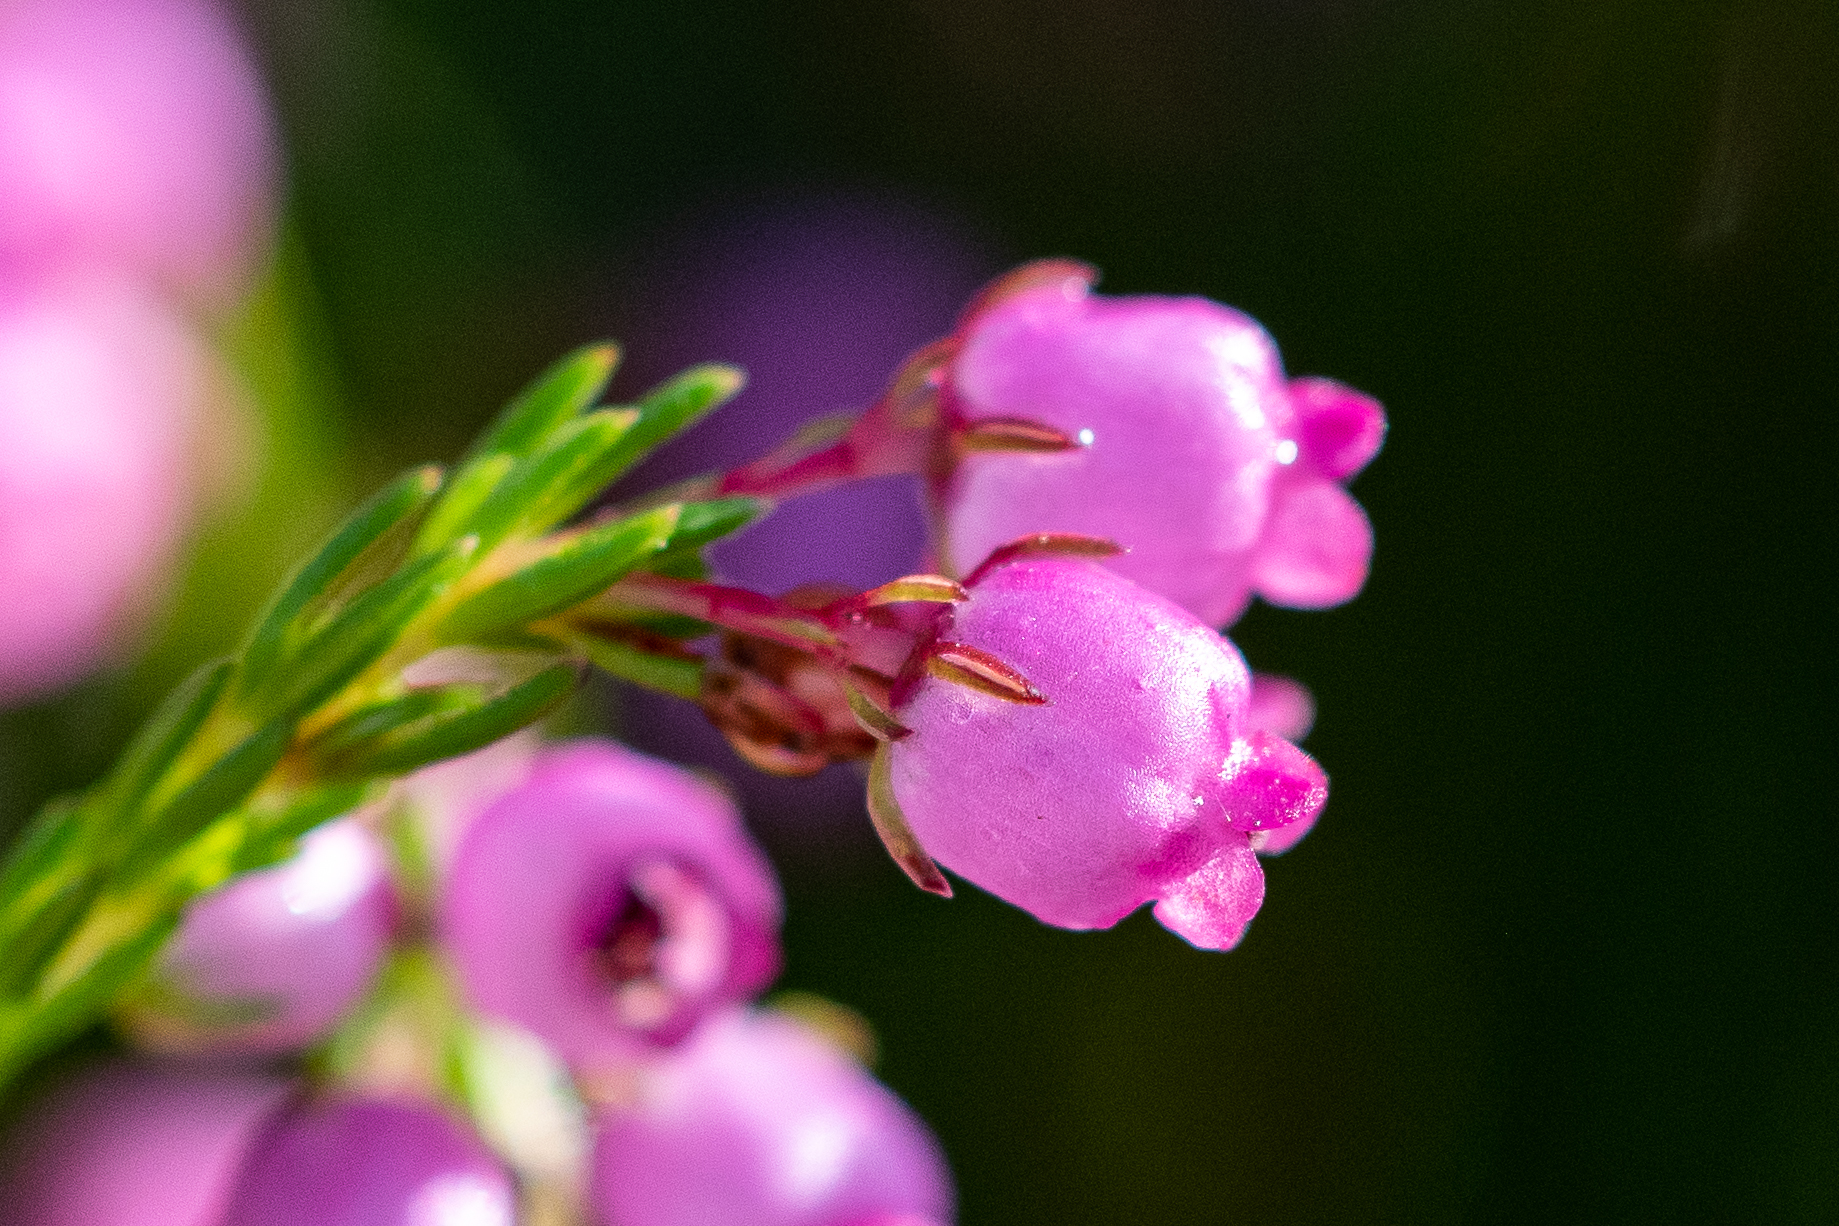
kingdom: Plantae
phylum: Tracheophyta
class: Magnoliopsida
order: Ericales
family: Ericaceae
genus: Erica
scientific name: Erica laeta
